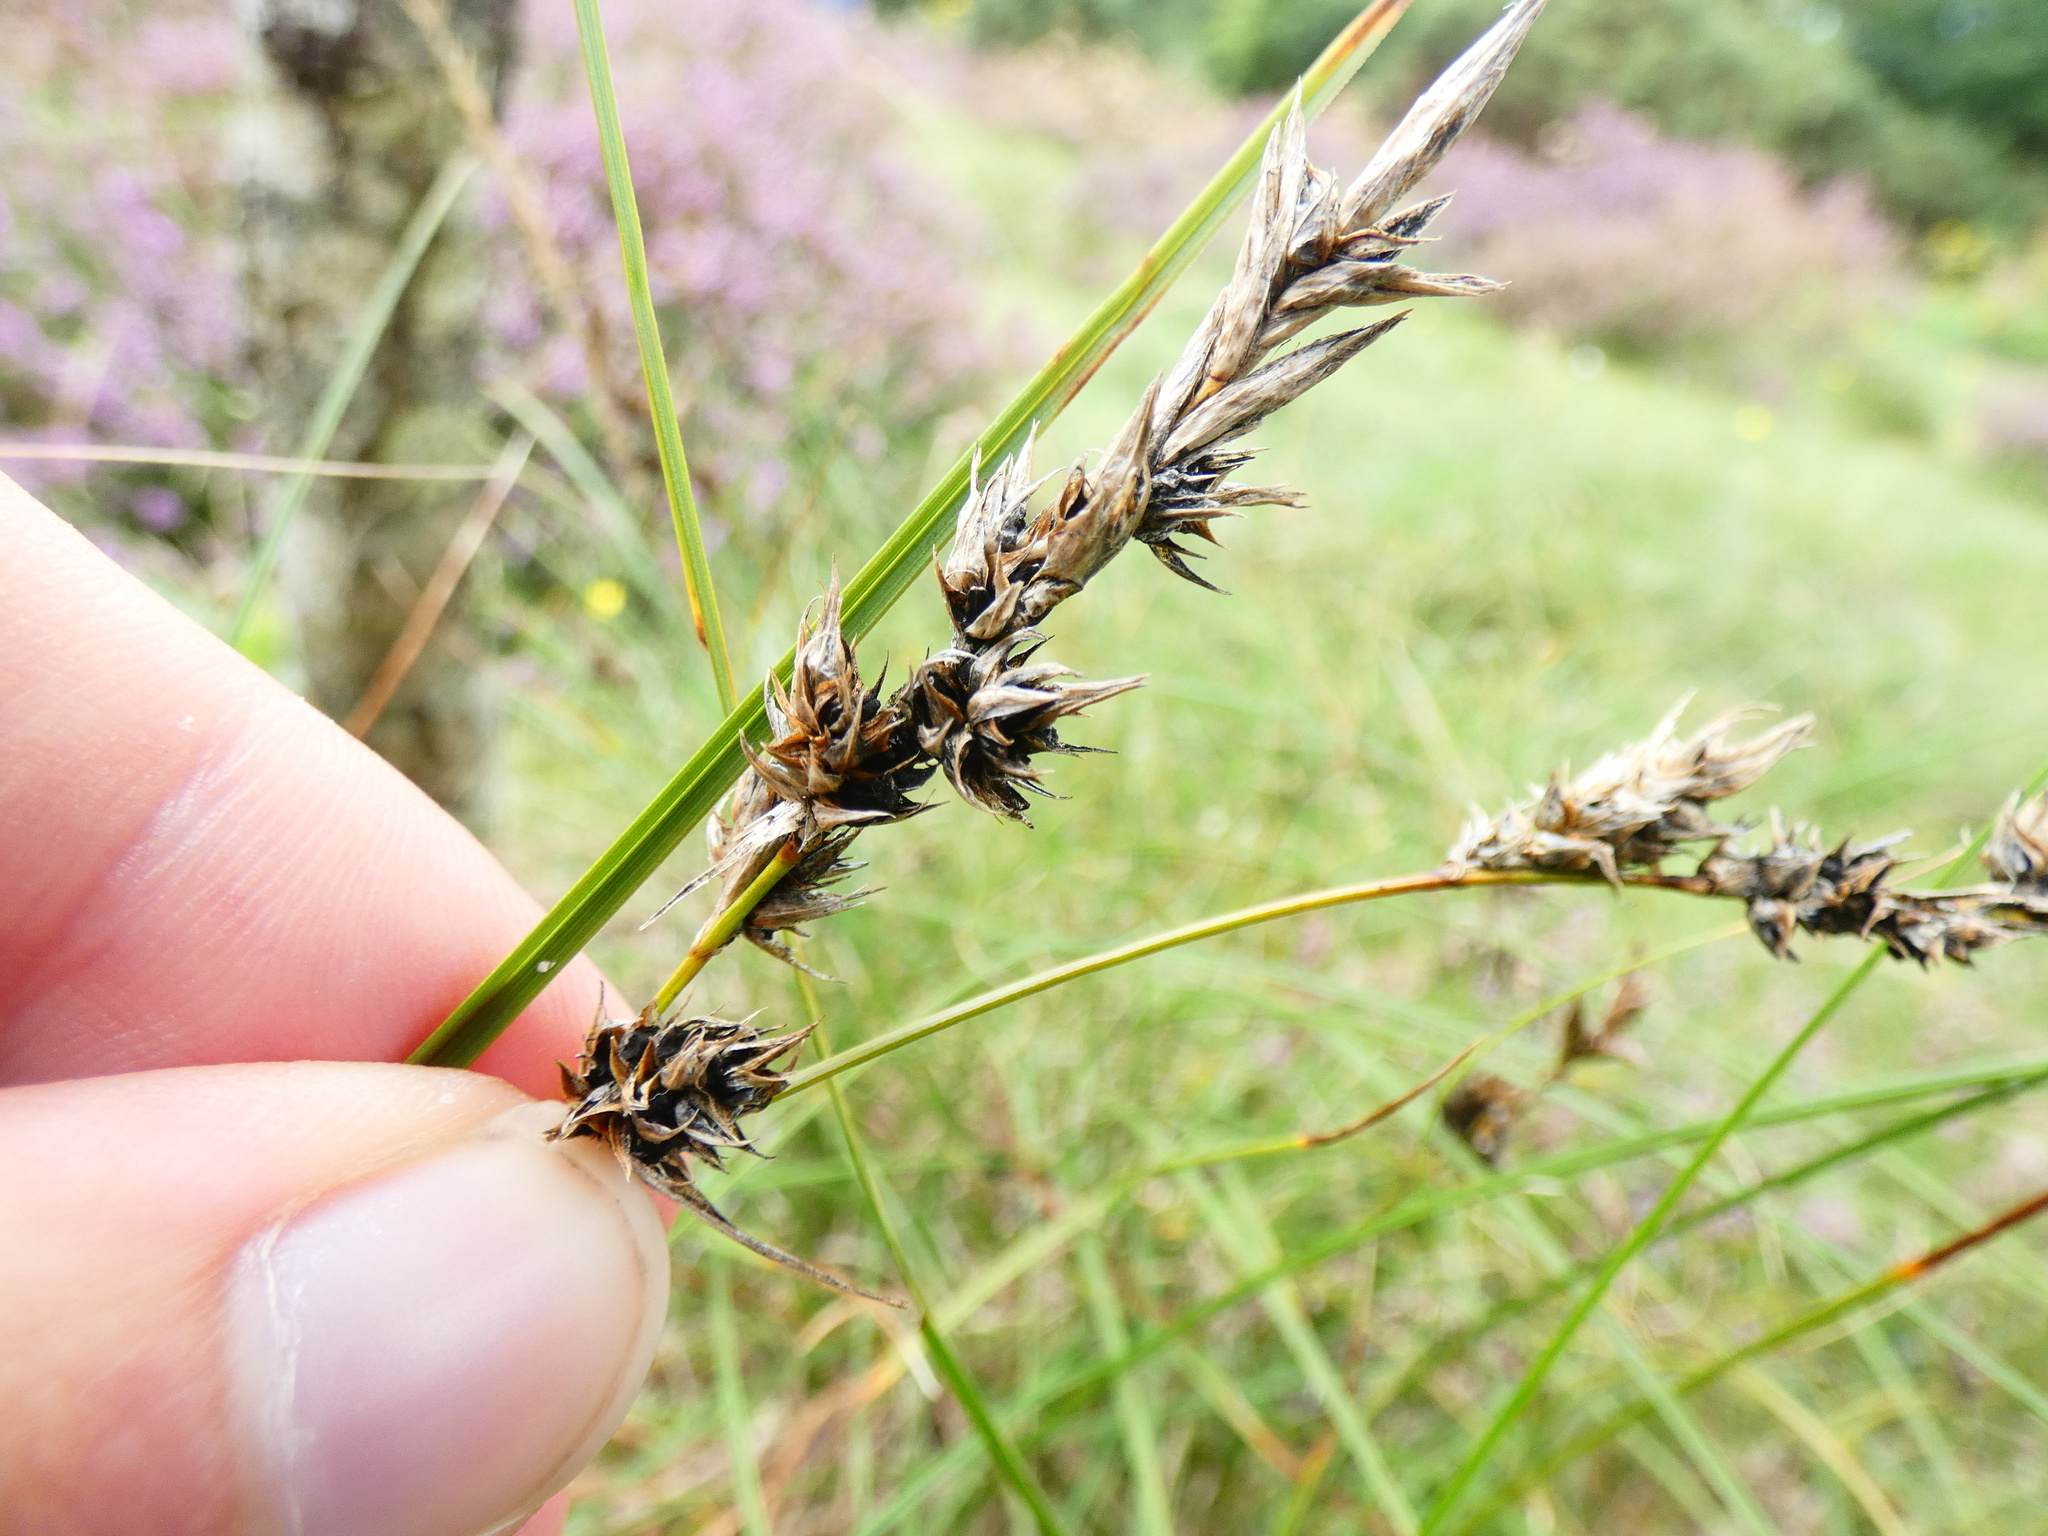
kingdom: Fungi
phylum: Basidiomycota
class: Ustilaginomycetes
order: Ustilaginales
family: Anthracoideaceae
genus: Anthracoidea
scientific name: Anthracoidea arenariae
